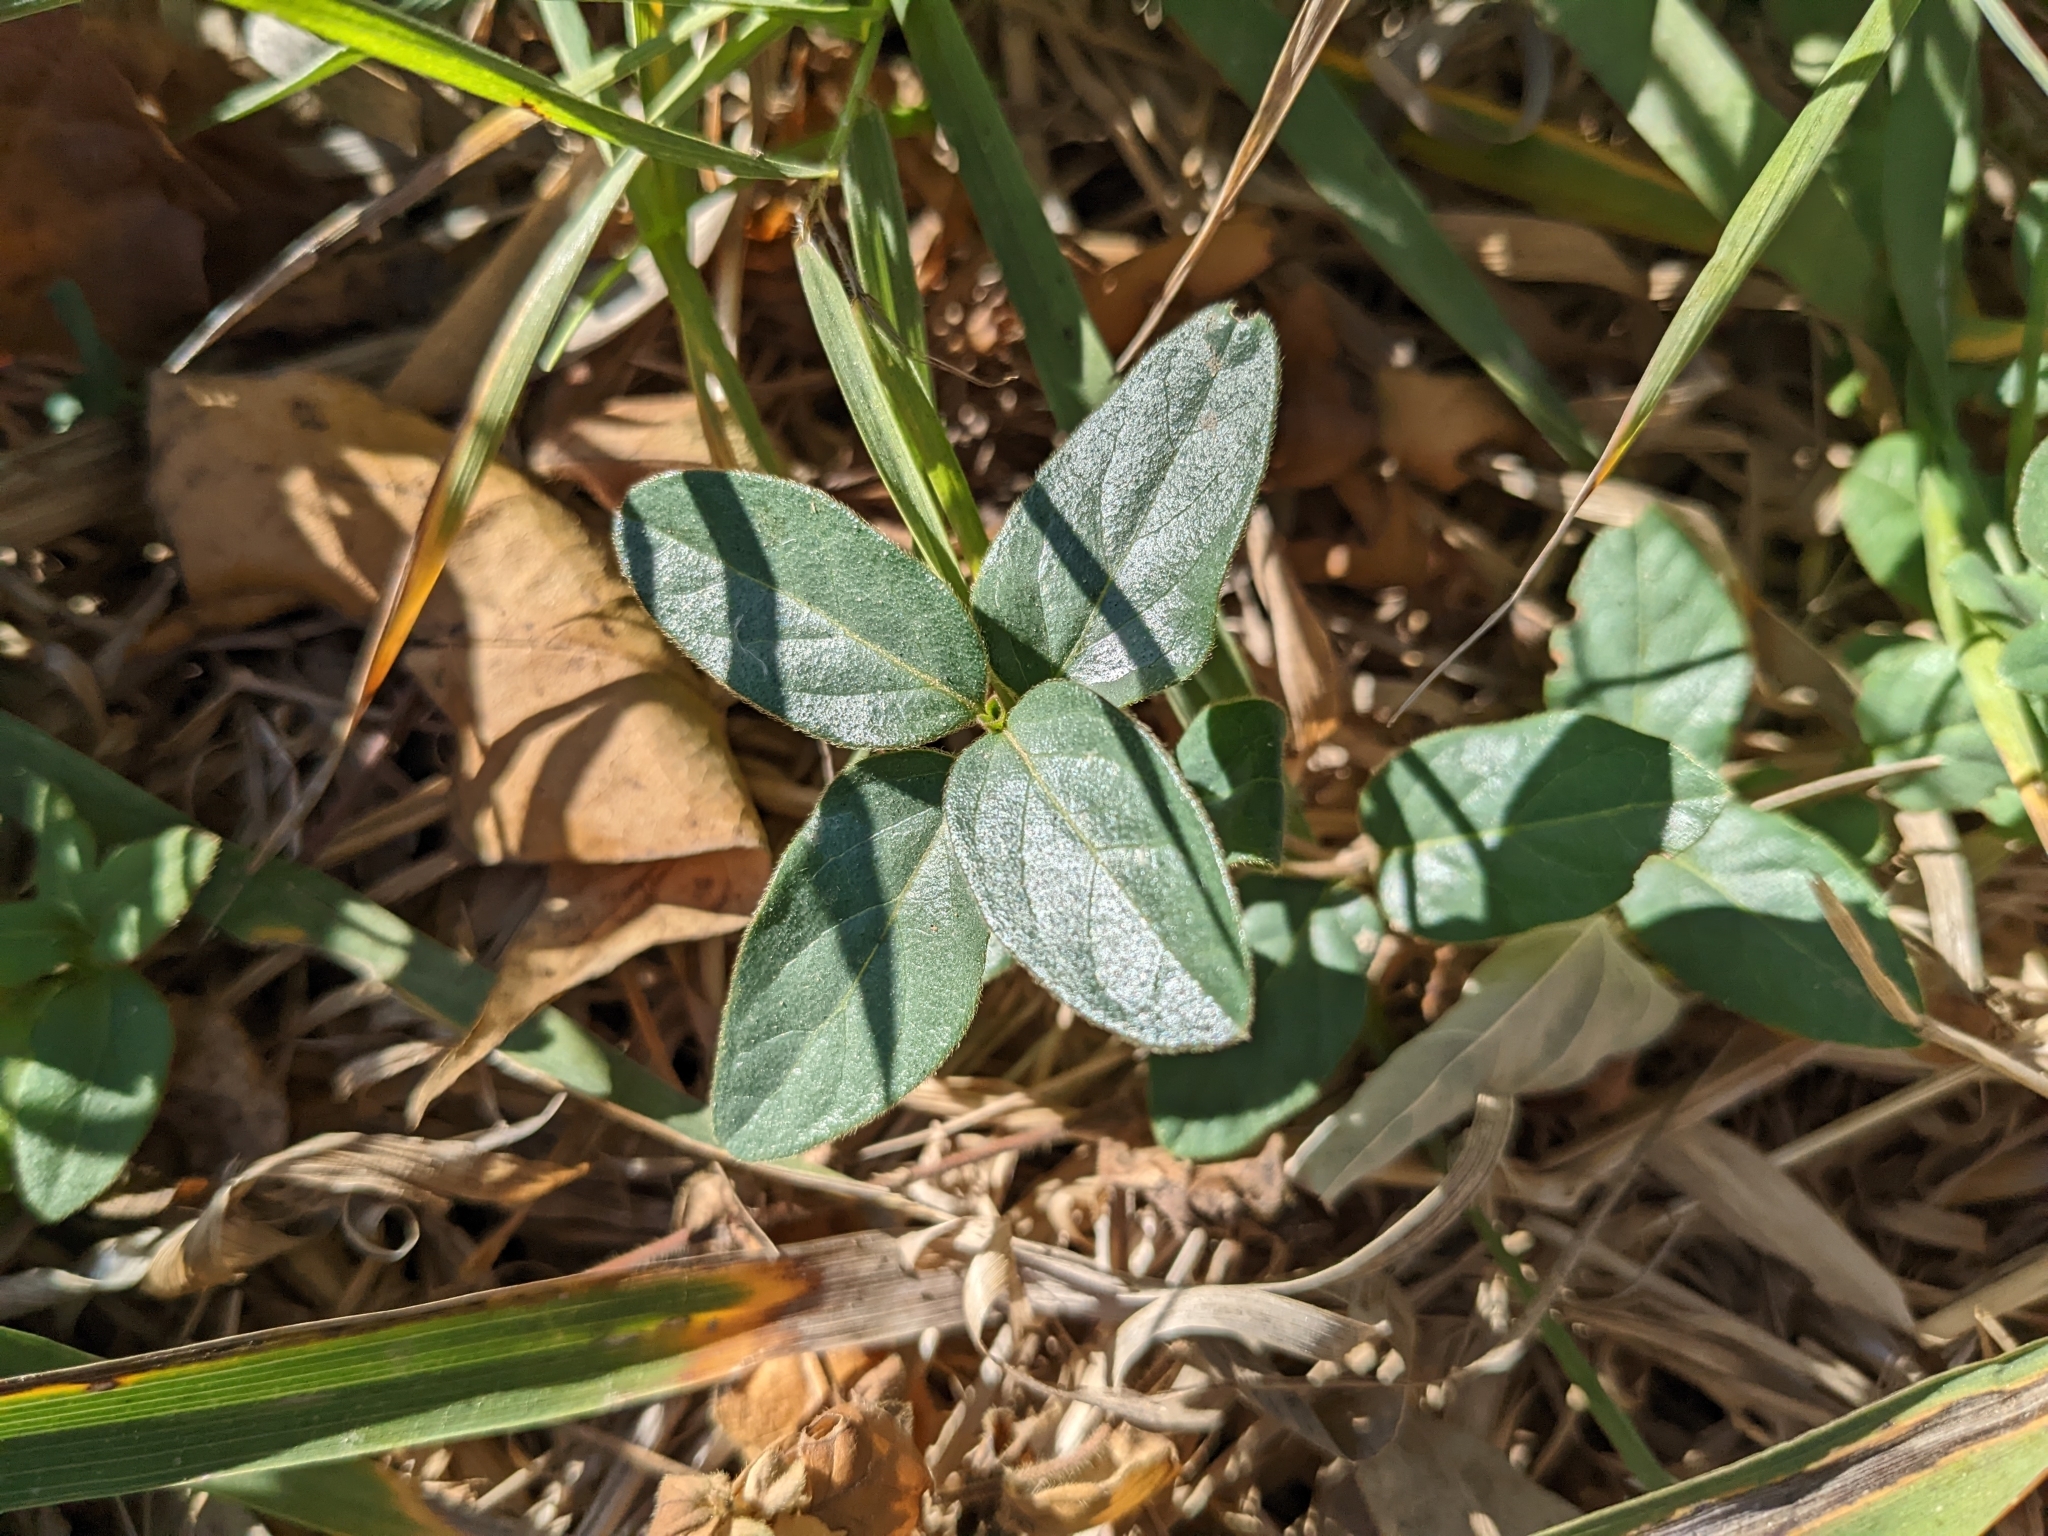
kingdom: Plantae
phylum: Tracheophyta
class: Magnoliopsida
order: Dipsacales
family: Caprifoliaceae
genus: Lonicera
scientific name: Lonicera japonica
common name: Japanese honeysuckle
